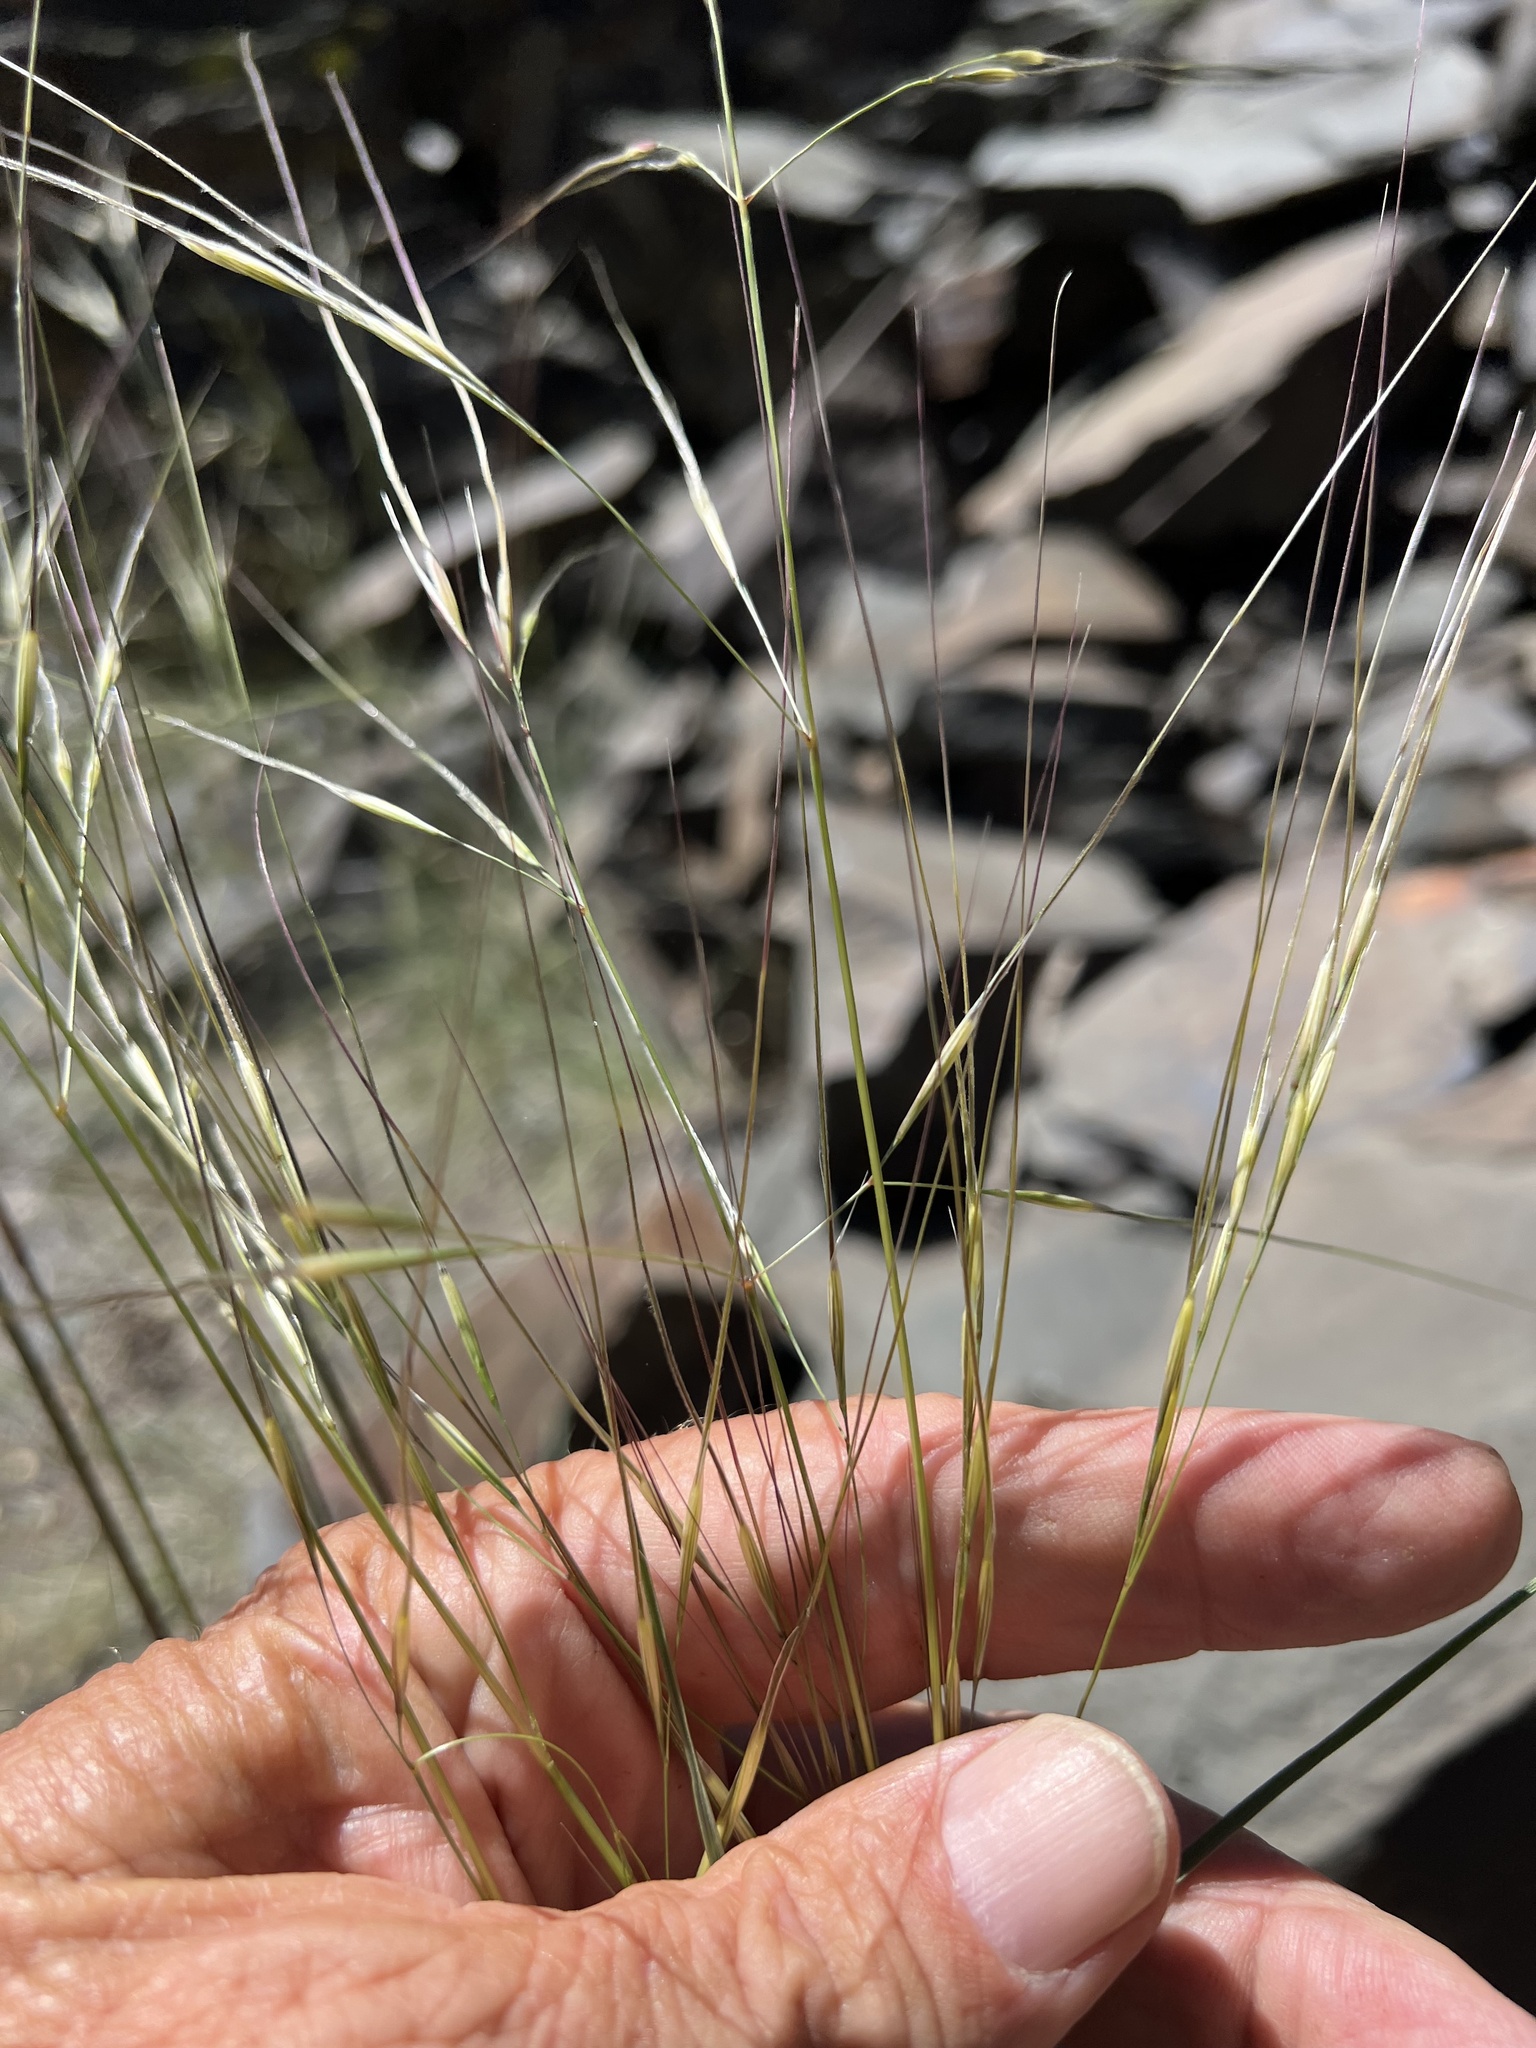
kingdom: Plantae
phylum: Tracheophyta
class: Liliopsida
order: Poales
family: Poaceae
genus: Hesperostipa
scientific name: Hesperostipa comata
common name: Needle-and-thread grass
